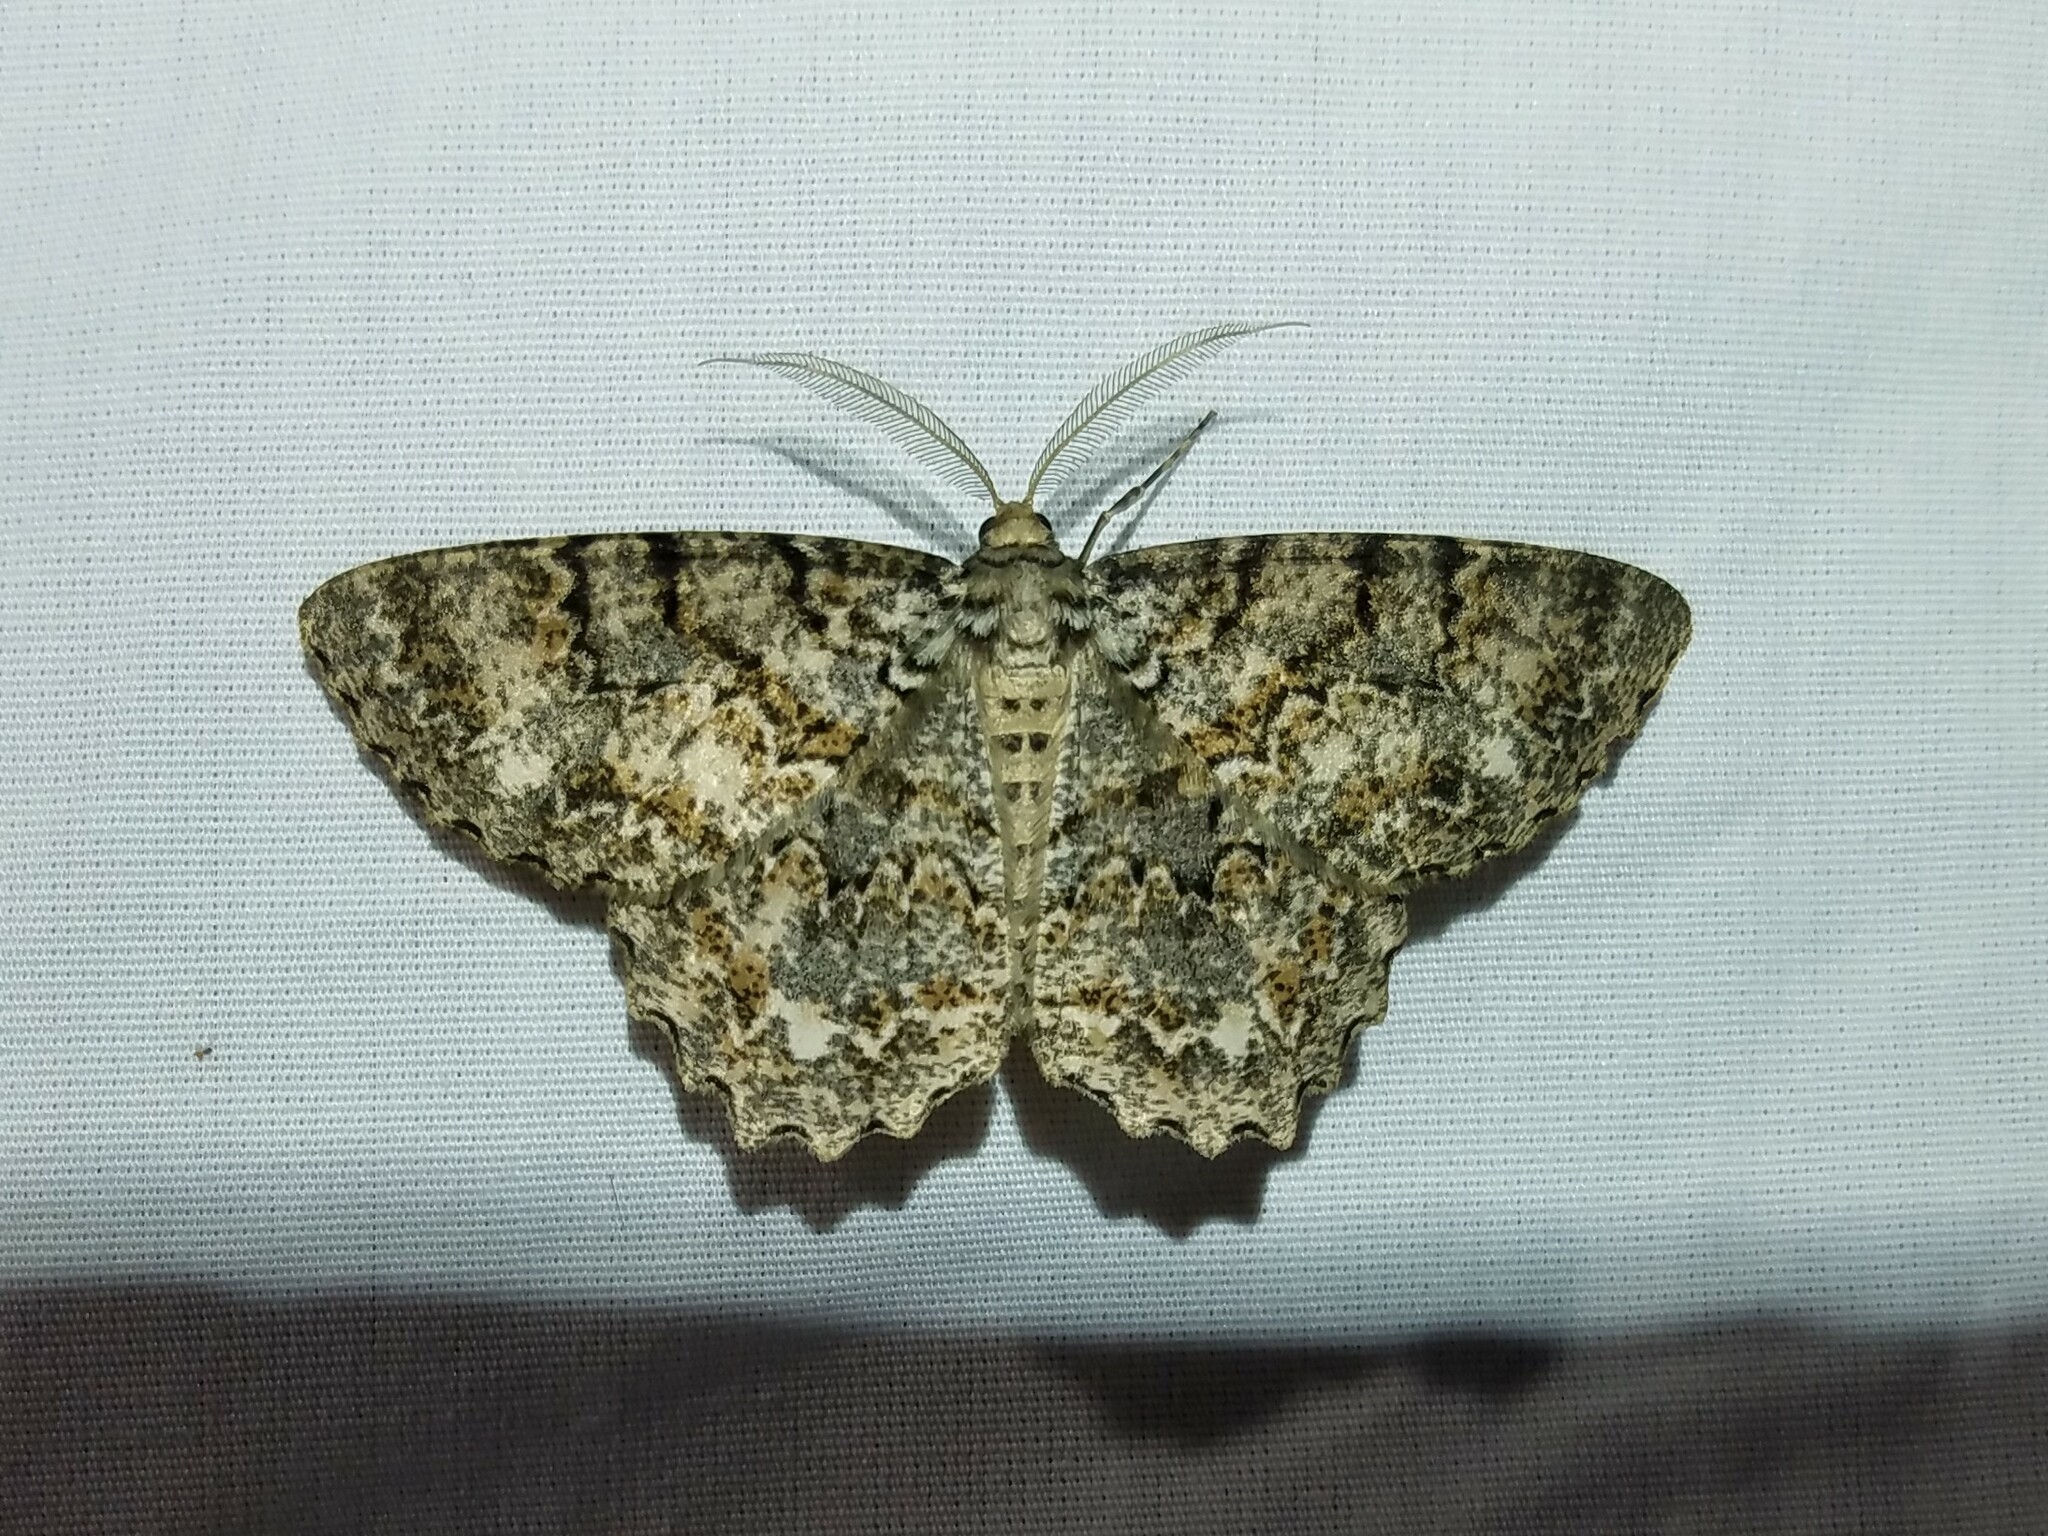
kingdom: Animalia
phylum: Arthropoda
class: Insecta
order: Lepidoptera
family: Geometridae
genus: Epimecis
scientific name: Epimecis hortaria
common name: Tulip-tree beauty
